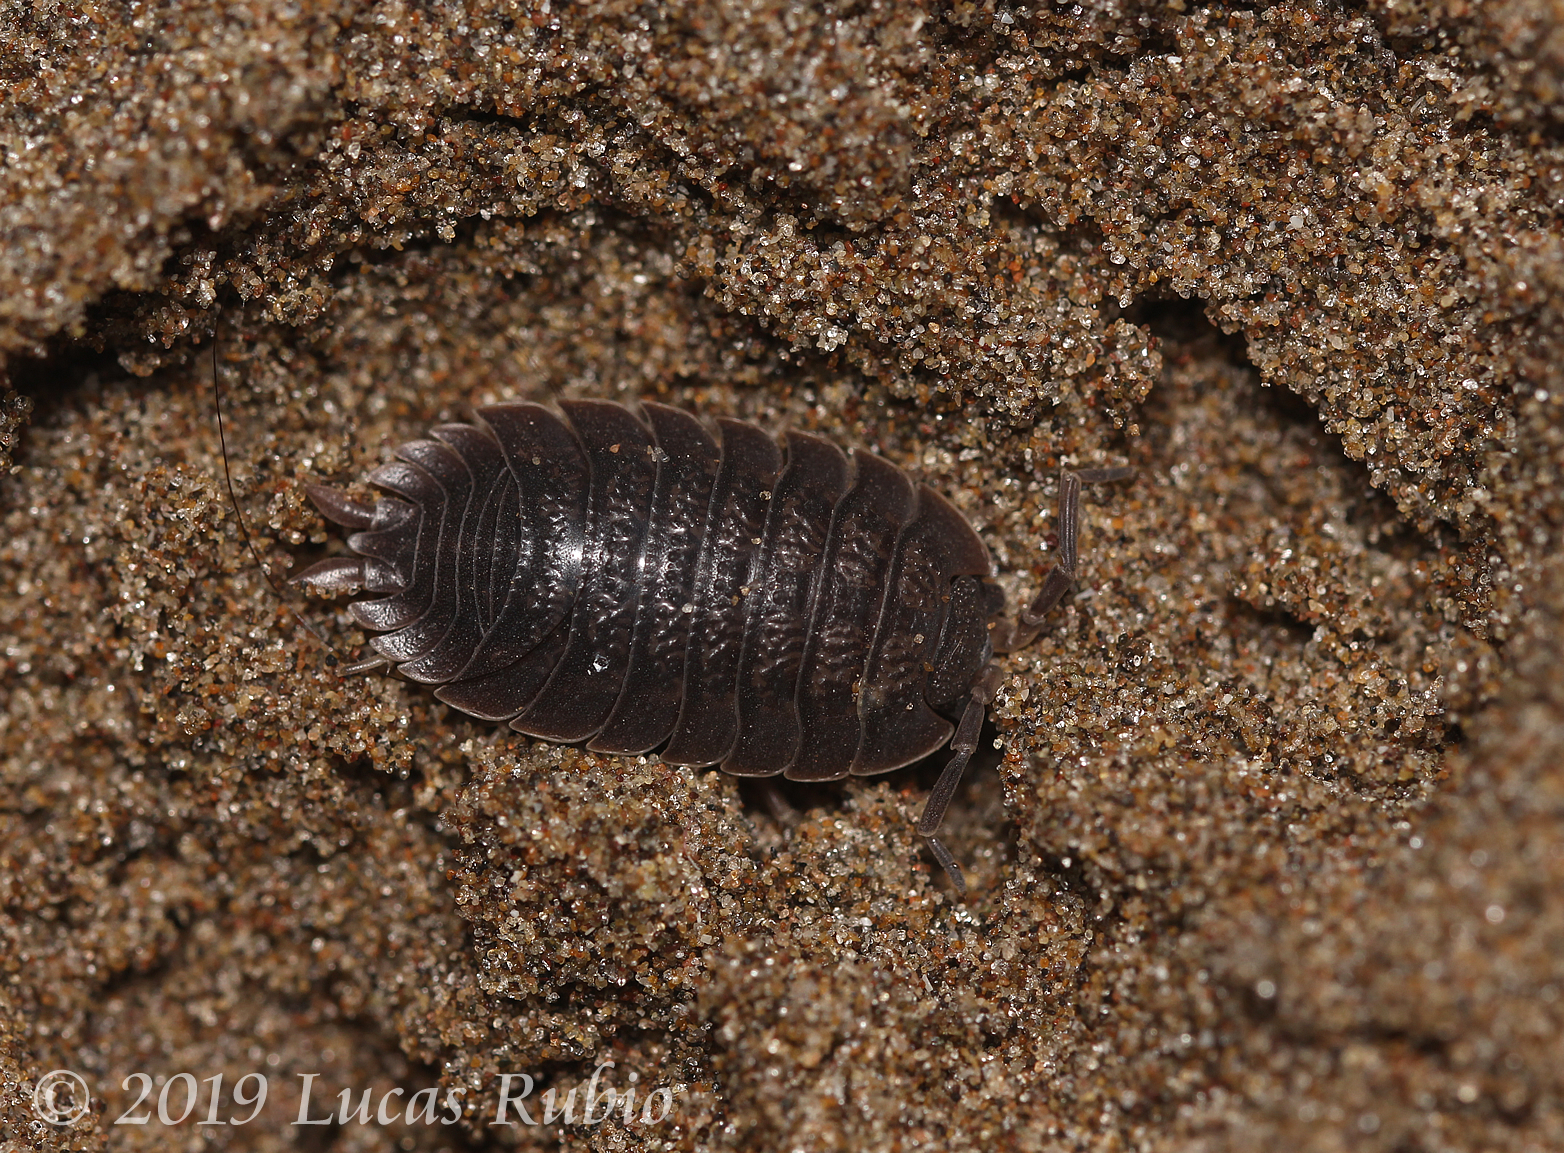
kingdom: Animalia
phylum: Arthropoda
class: Malacostraca
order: Isopoda
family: Porcellionidae
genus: Porcellio
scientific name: Porcellio dilatatus
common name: Isopod
